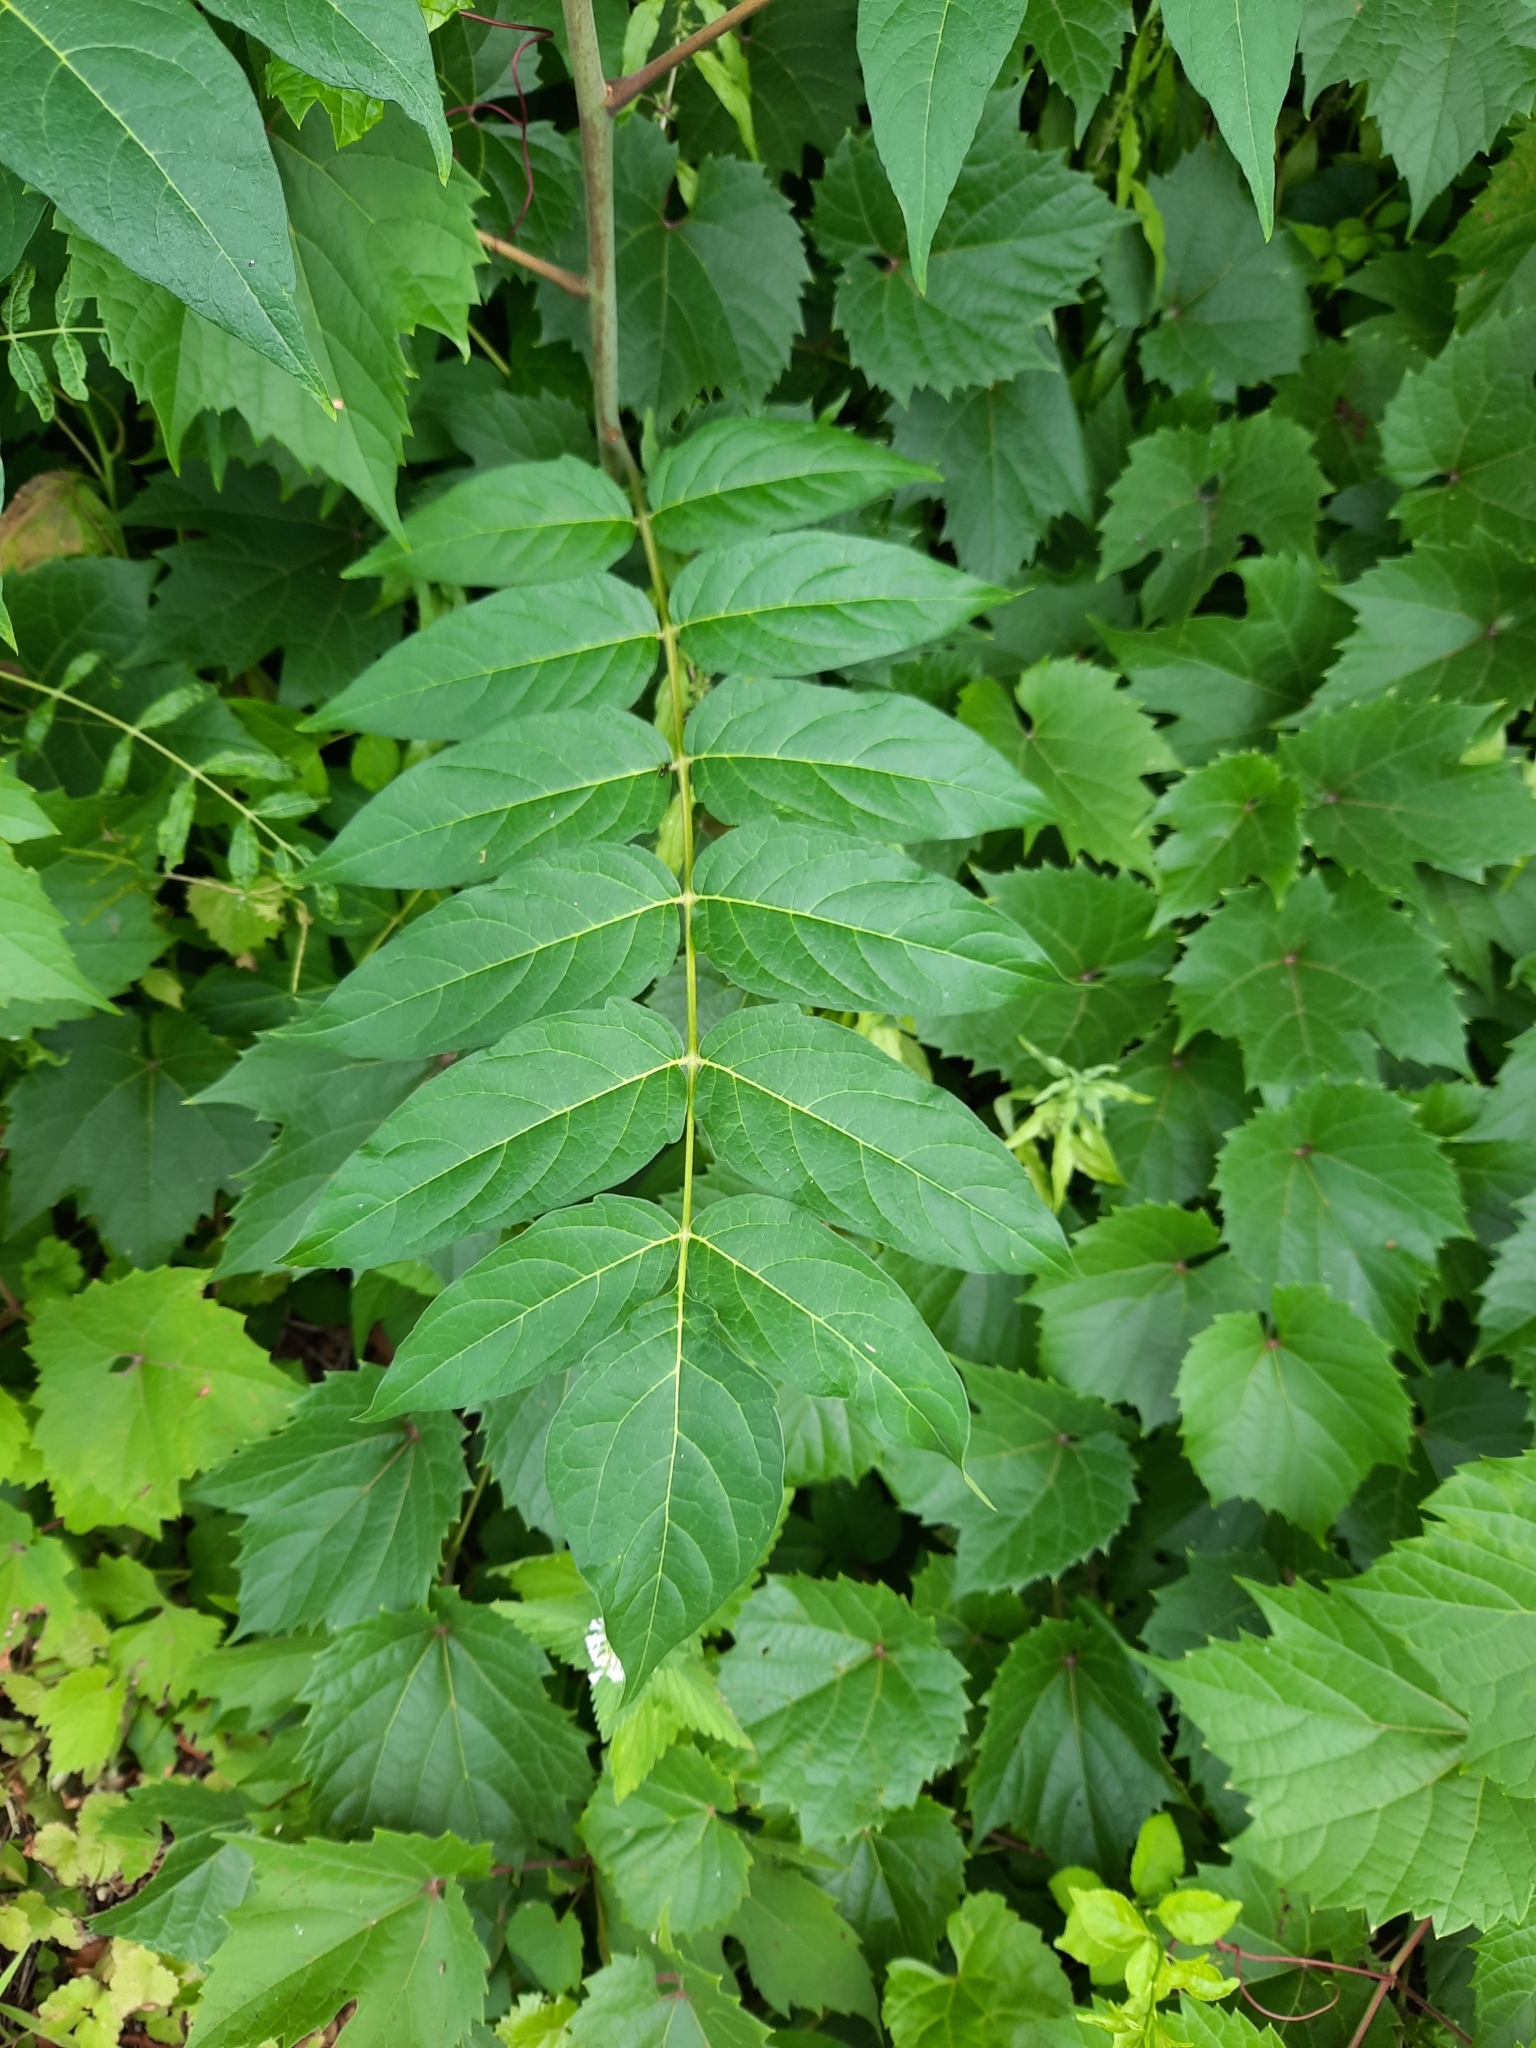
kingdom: Plantae
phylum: Tracheophyta
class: Magnoliopsida
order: Sapindales
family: Simaroubaceae
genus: Ailanthus
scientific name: Ailanthus altissima
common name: Tree-of-heaven
